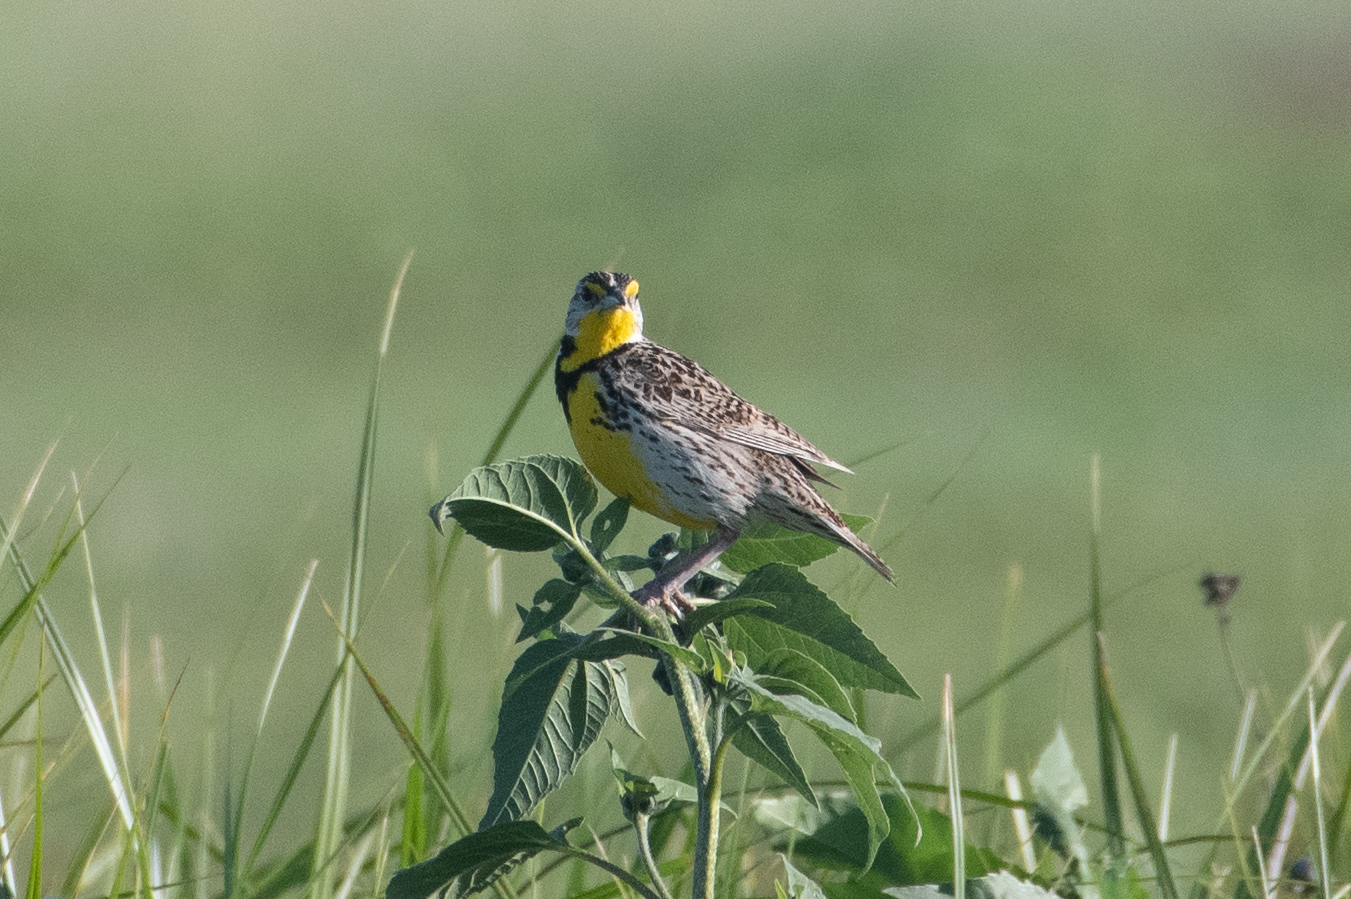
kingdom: Animalia
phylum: Chordata
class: Aves
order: Passeriformes
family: Icteridae
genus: Sturnella
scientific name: Sturnella neglecta
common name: Western meadowlark
